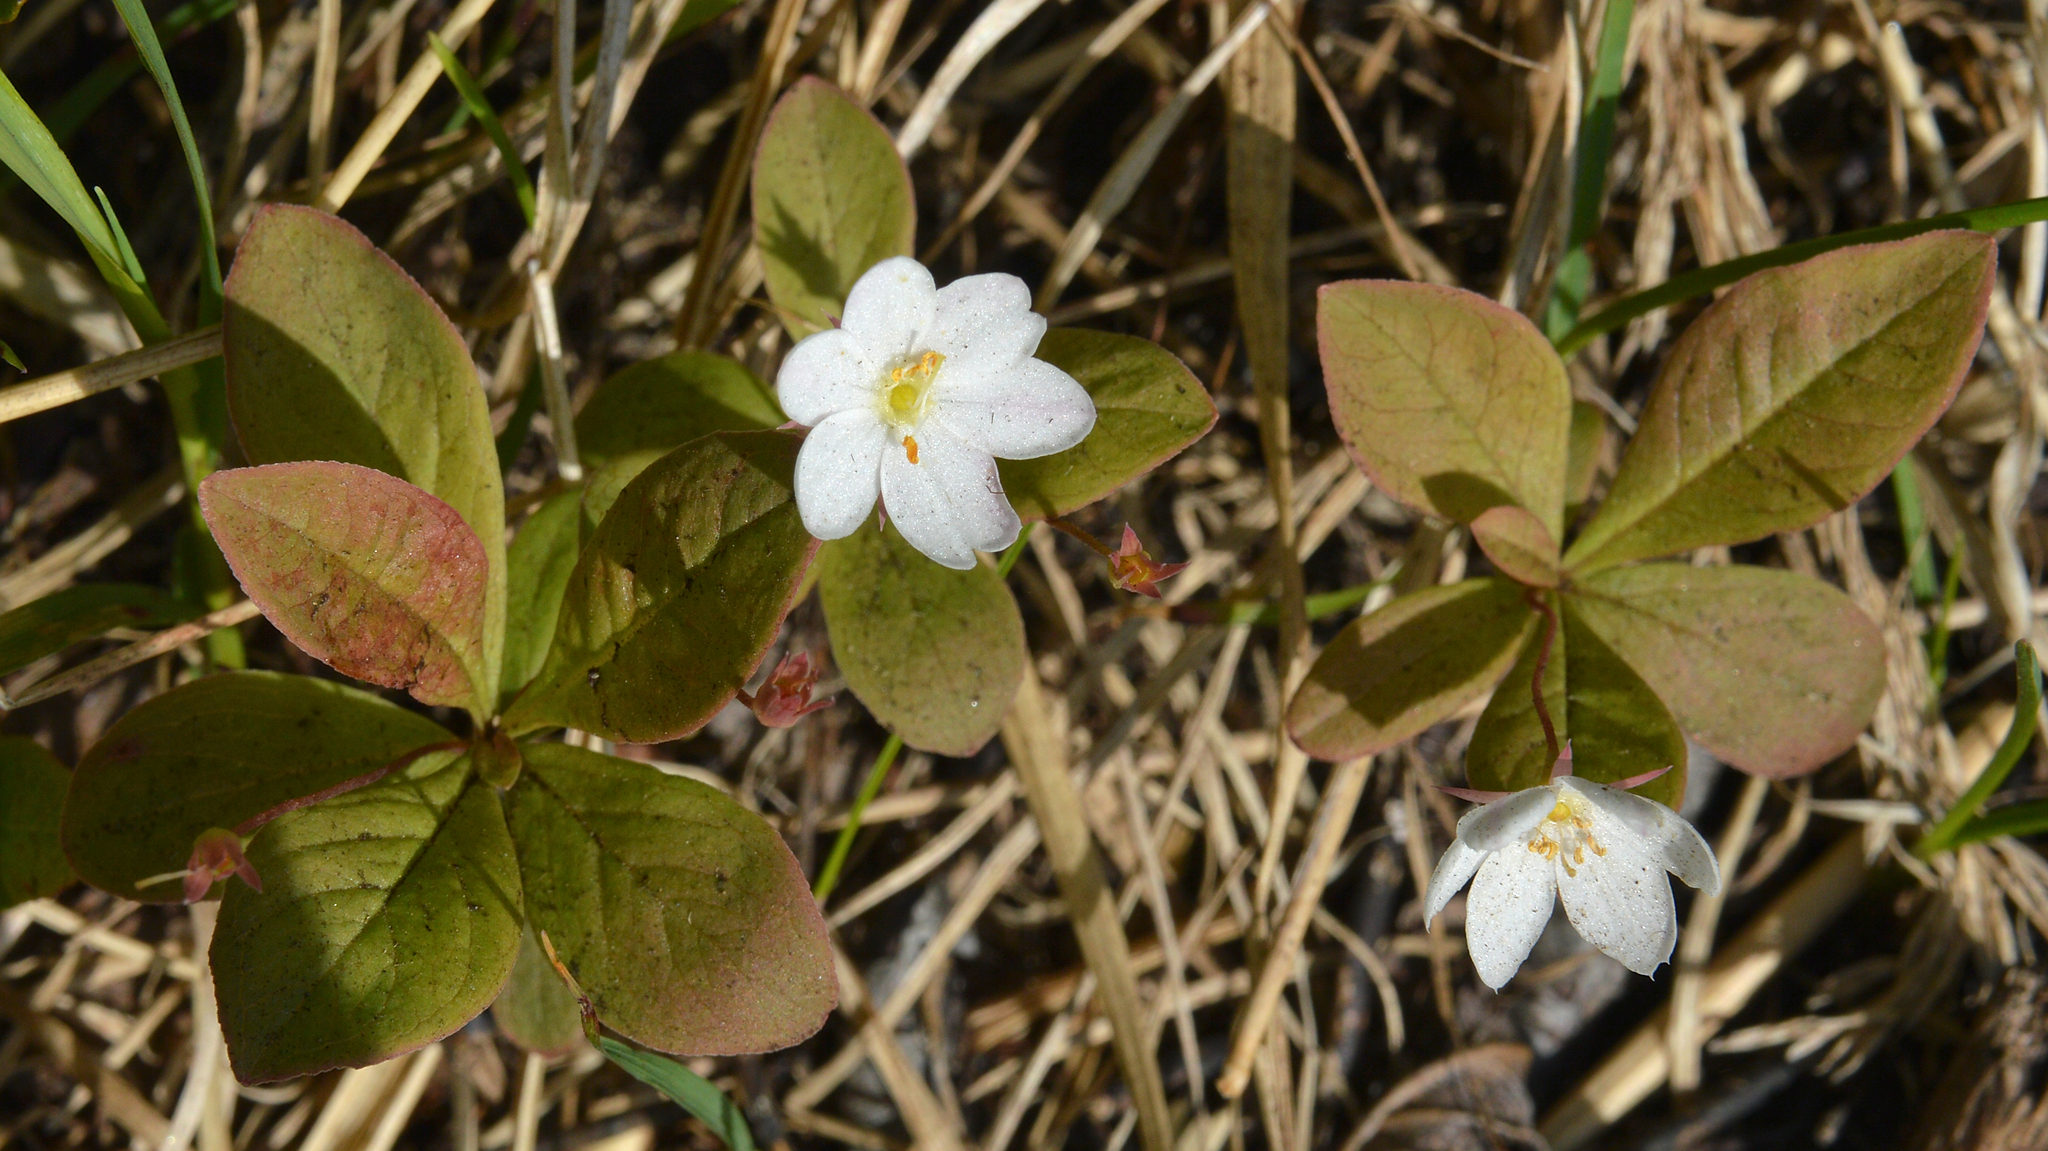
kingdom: Plantae
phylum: Tracheophyta
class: Magnoliopsida
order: Ericales
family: Primulaceae
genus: Lysimachia
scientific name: Lysimachia europaea
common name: Arctic starflower
